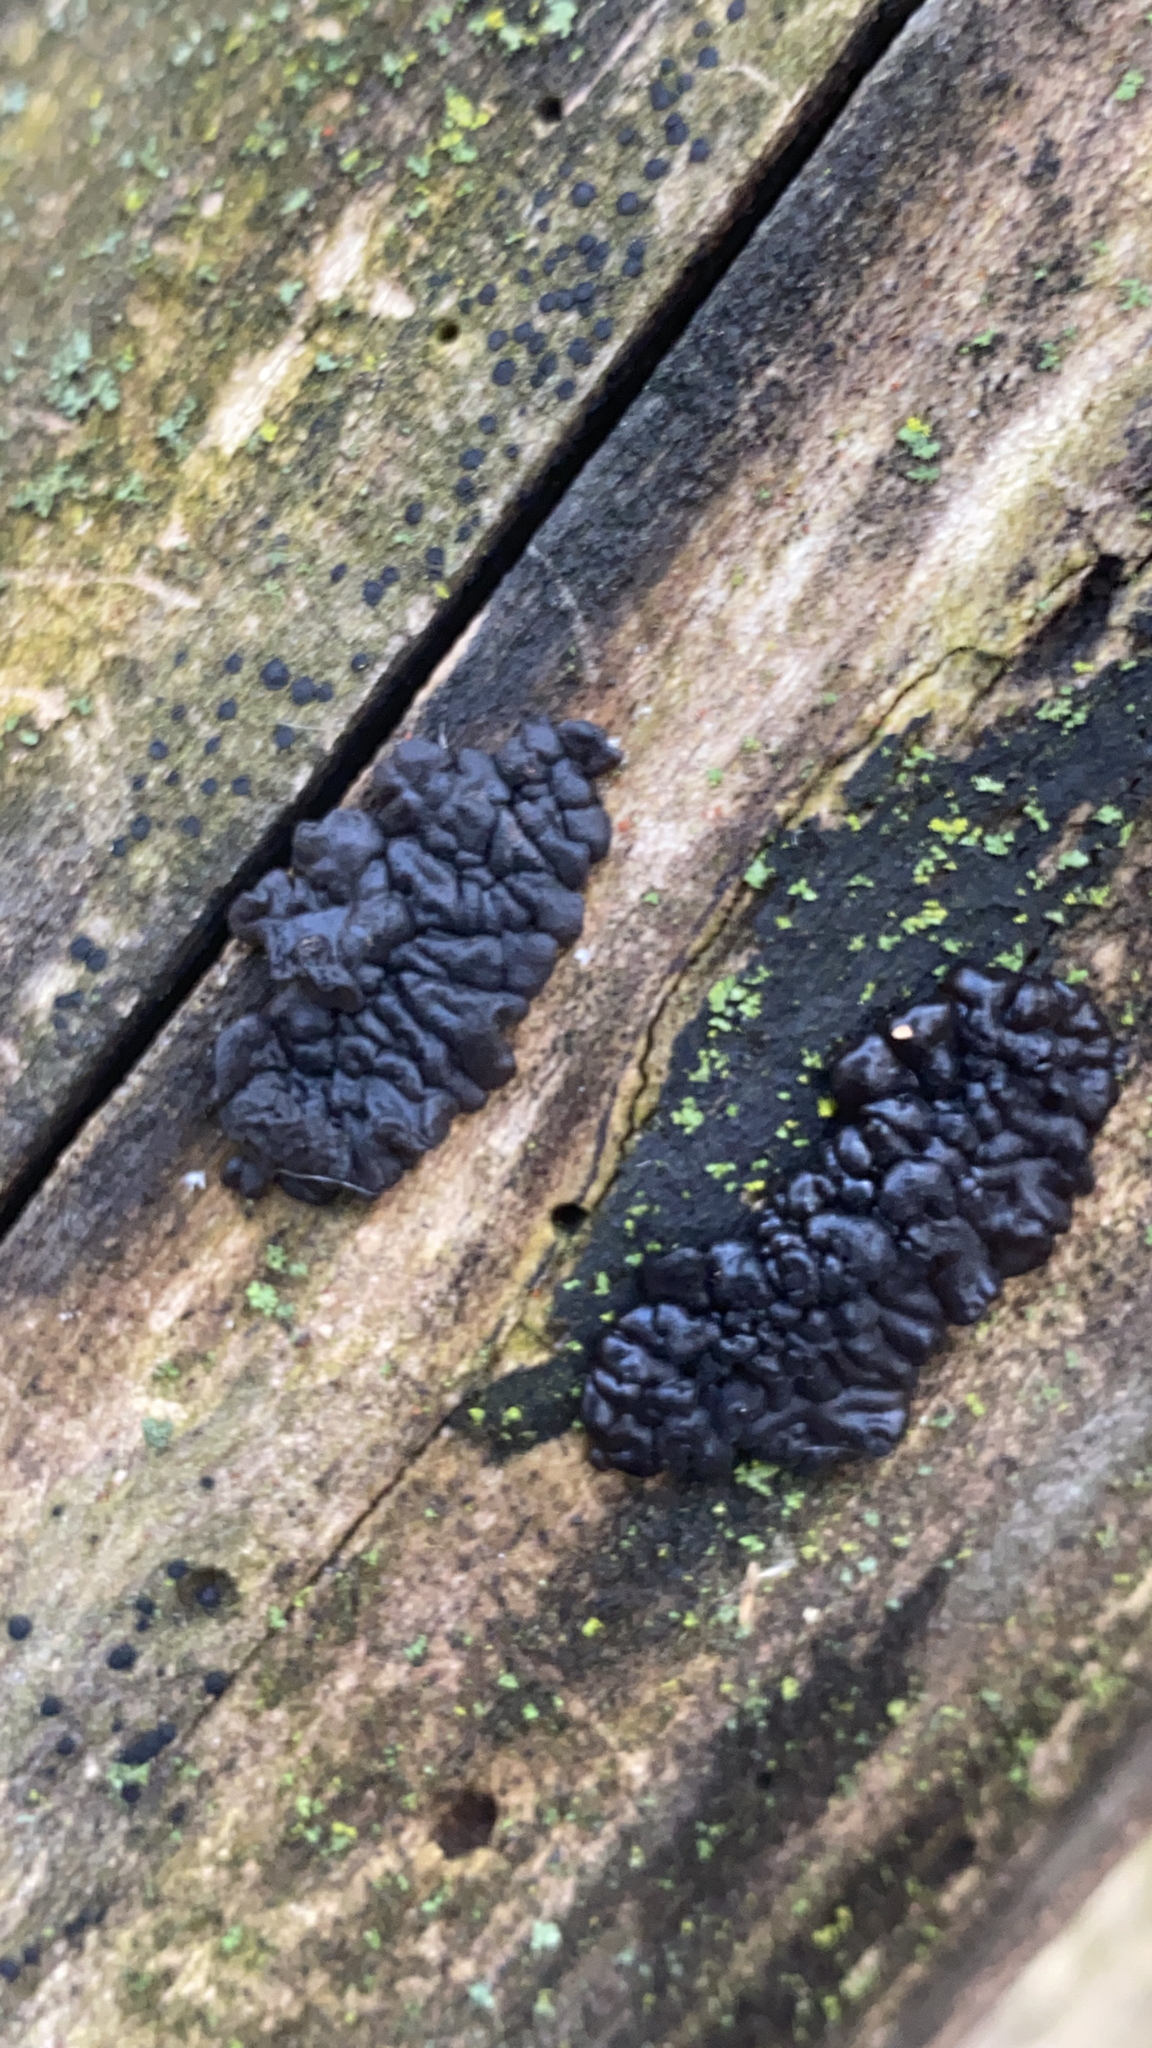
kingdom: Fungi
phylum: Basidiomycota
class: Agaricomycetes
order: Auriculariales
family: Auriculariaceae
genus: Exidia
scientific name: Exidia glandulosa
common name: Witches' butter
